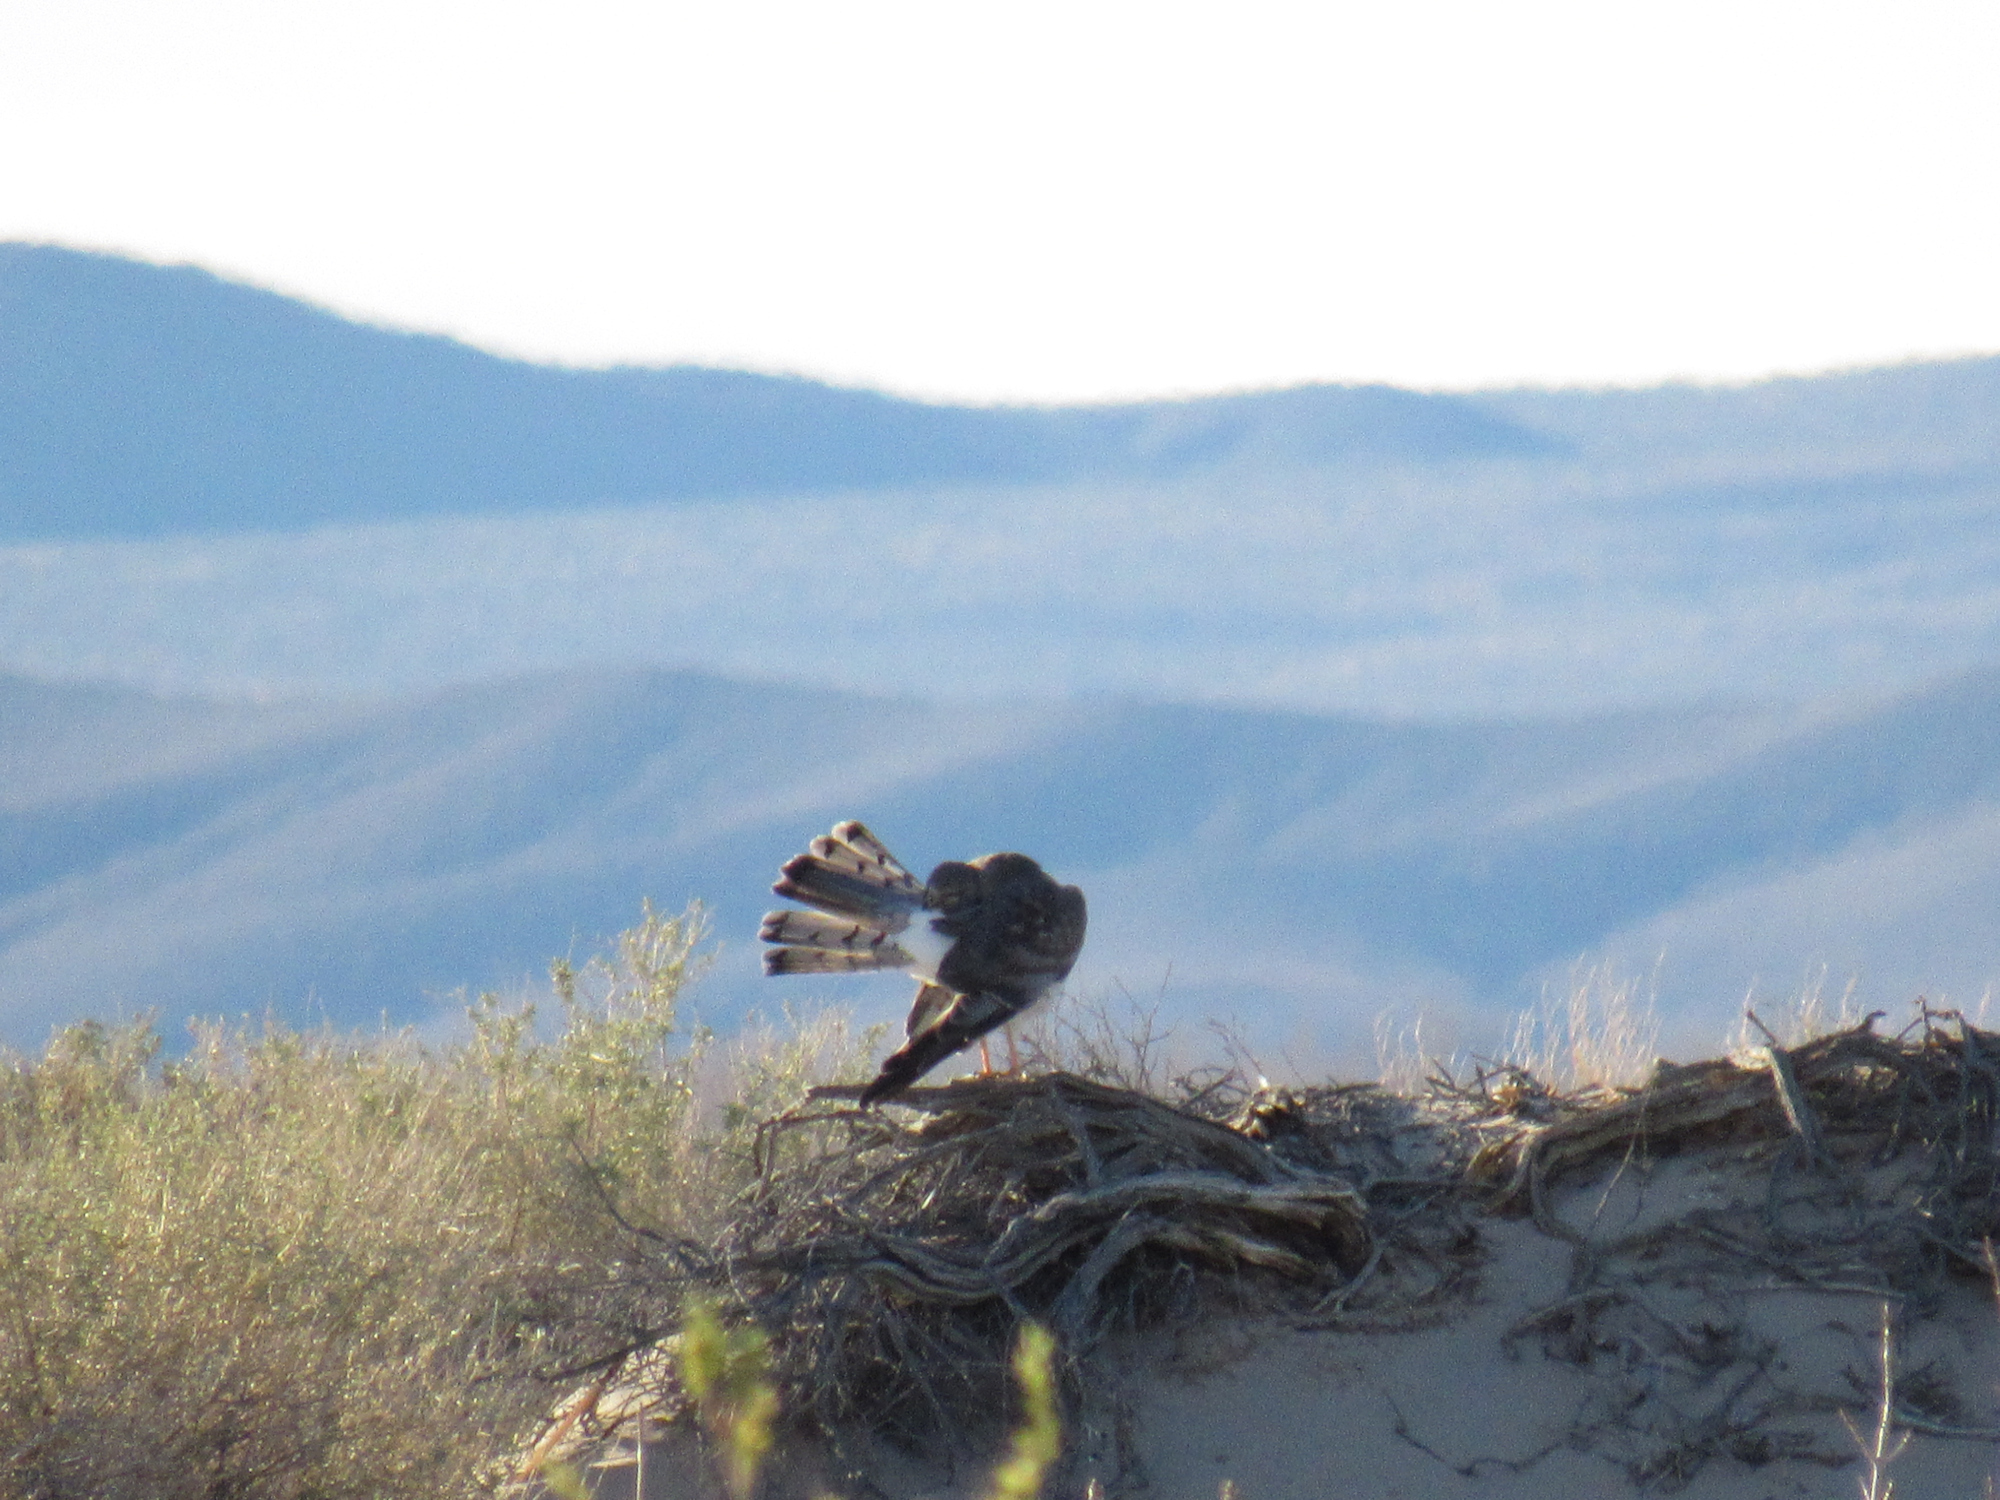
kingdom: Animalia
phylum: Chordata
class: Aves
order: Accipitriformes
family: Accipitridae
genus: Circus
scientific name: Circus cyaneus
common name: Hen harrier
